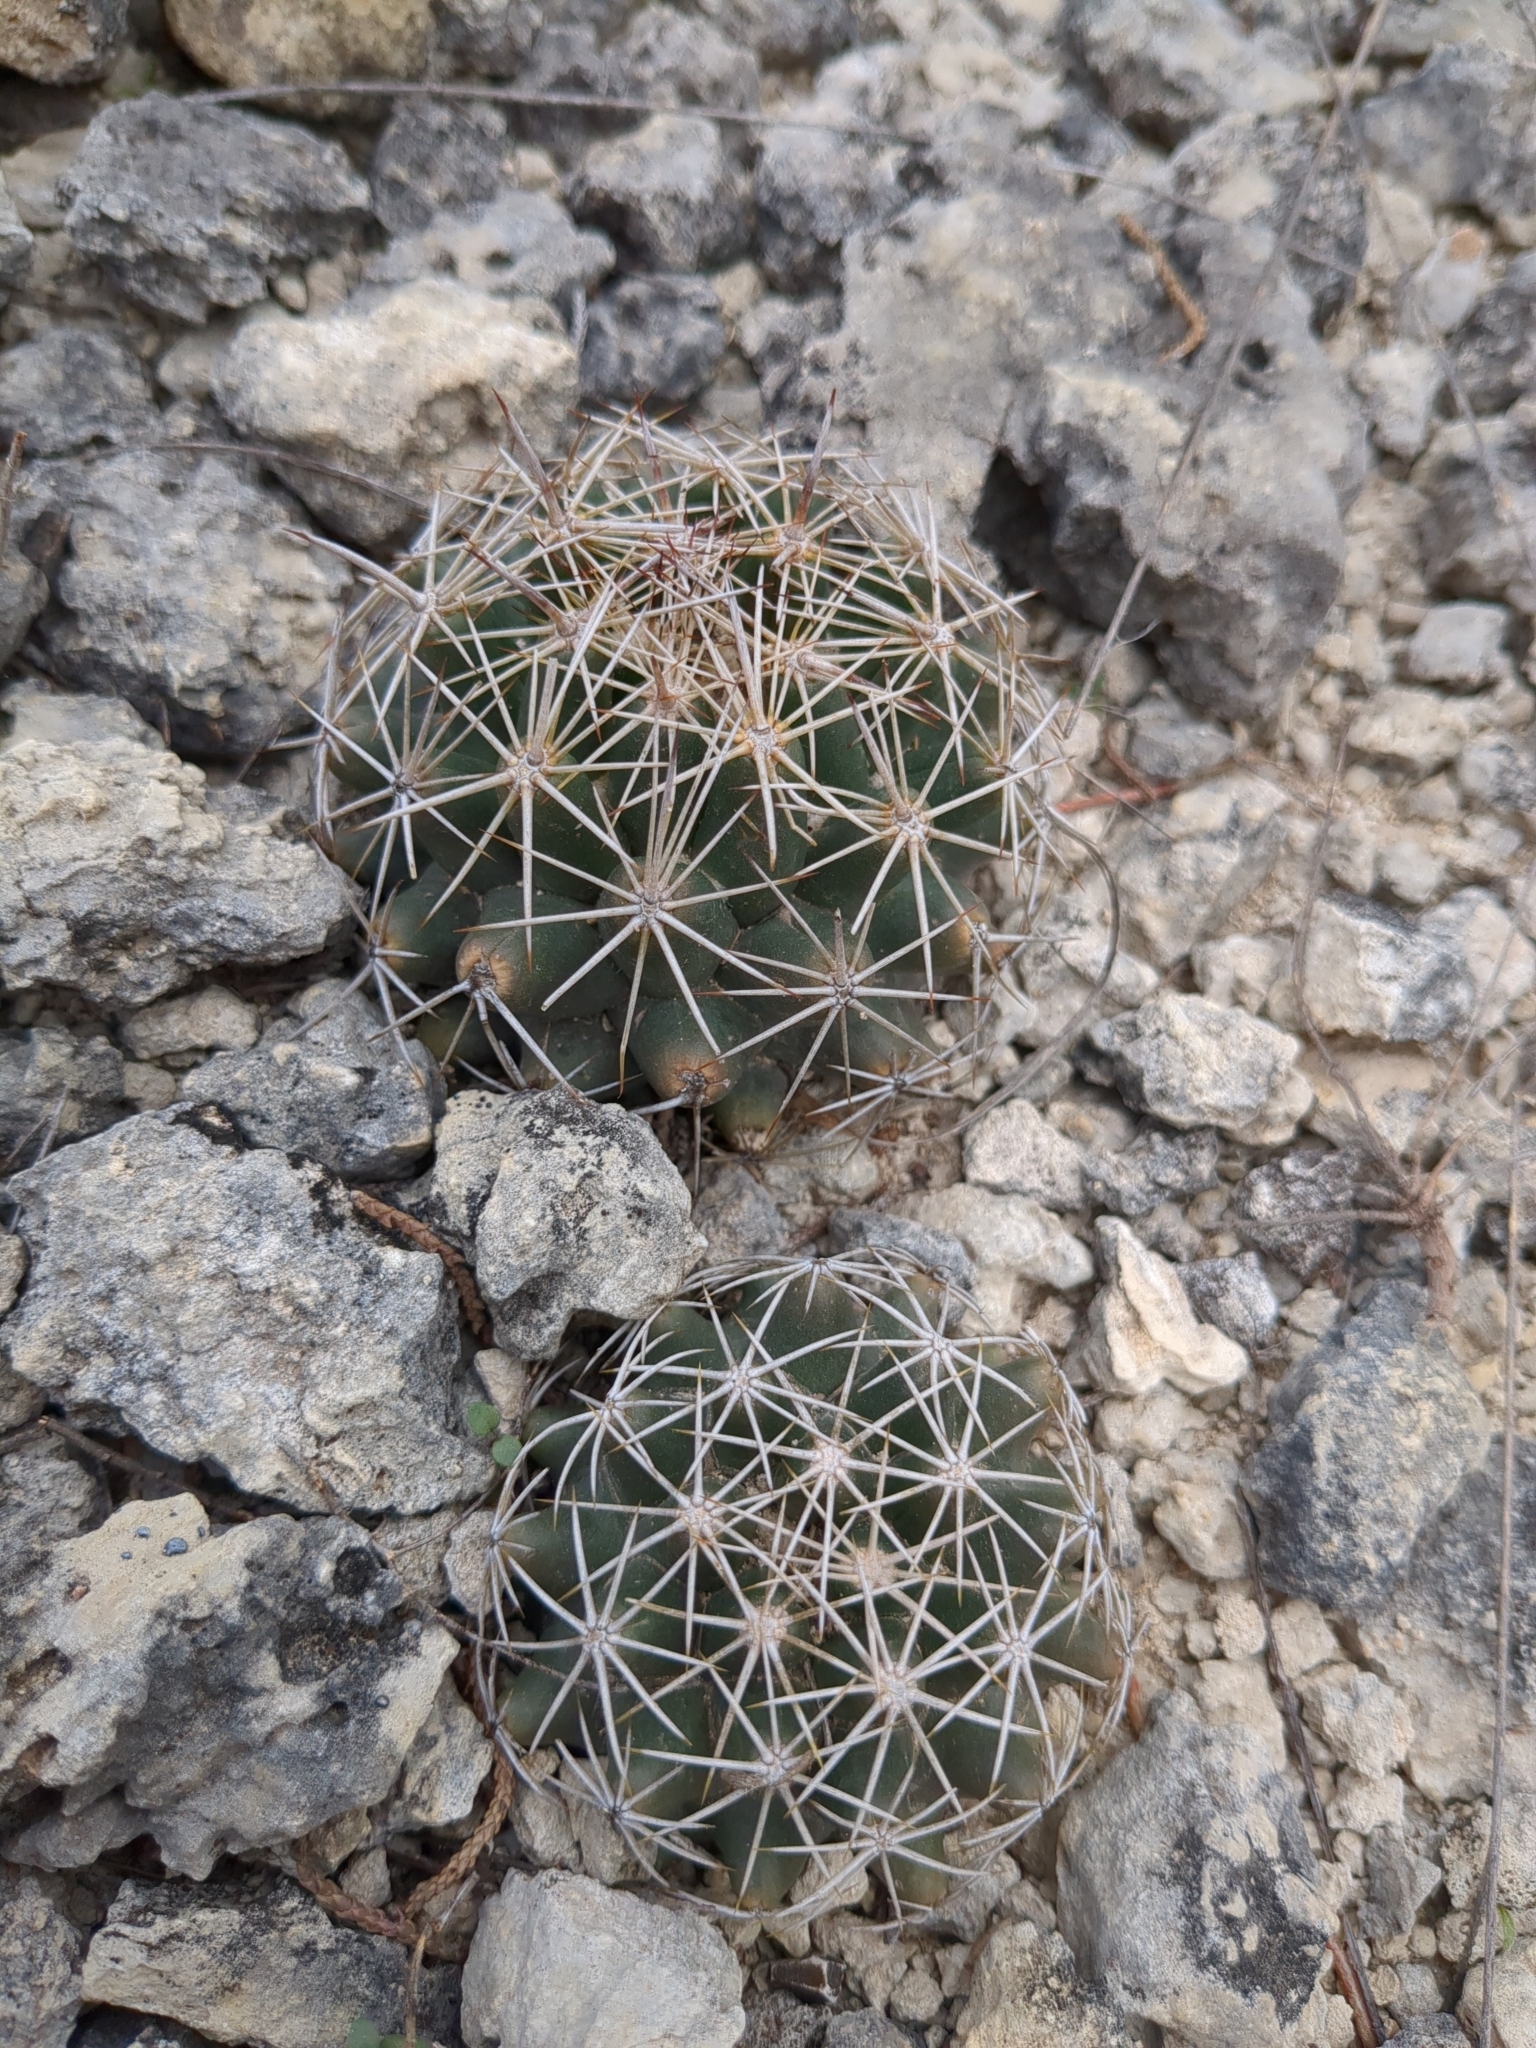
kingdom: Plantae
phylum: Tracheophyta
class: Magnoliopsida
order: Caryophyllales
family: Cactaceae
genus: Coryphantha
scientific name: Coryphantha sulcata
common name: Finger cactus
